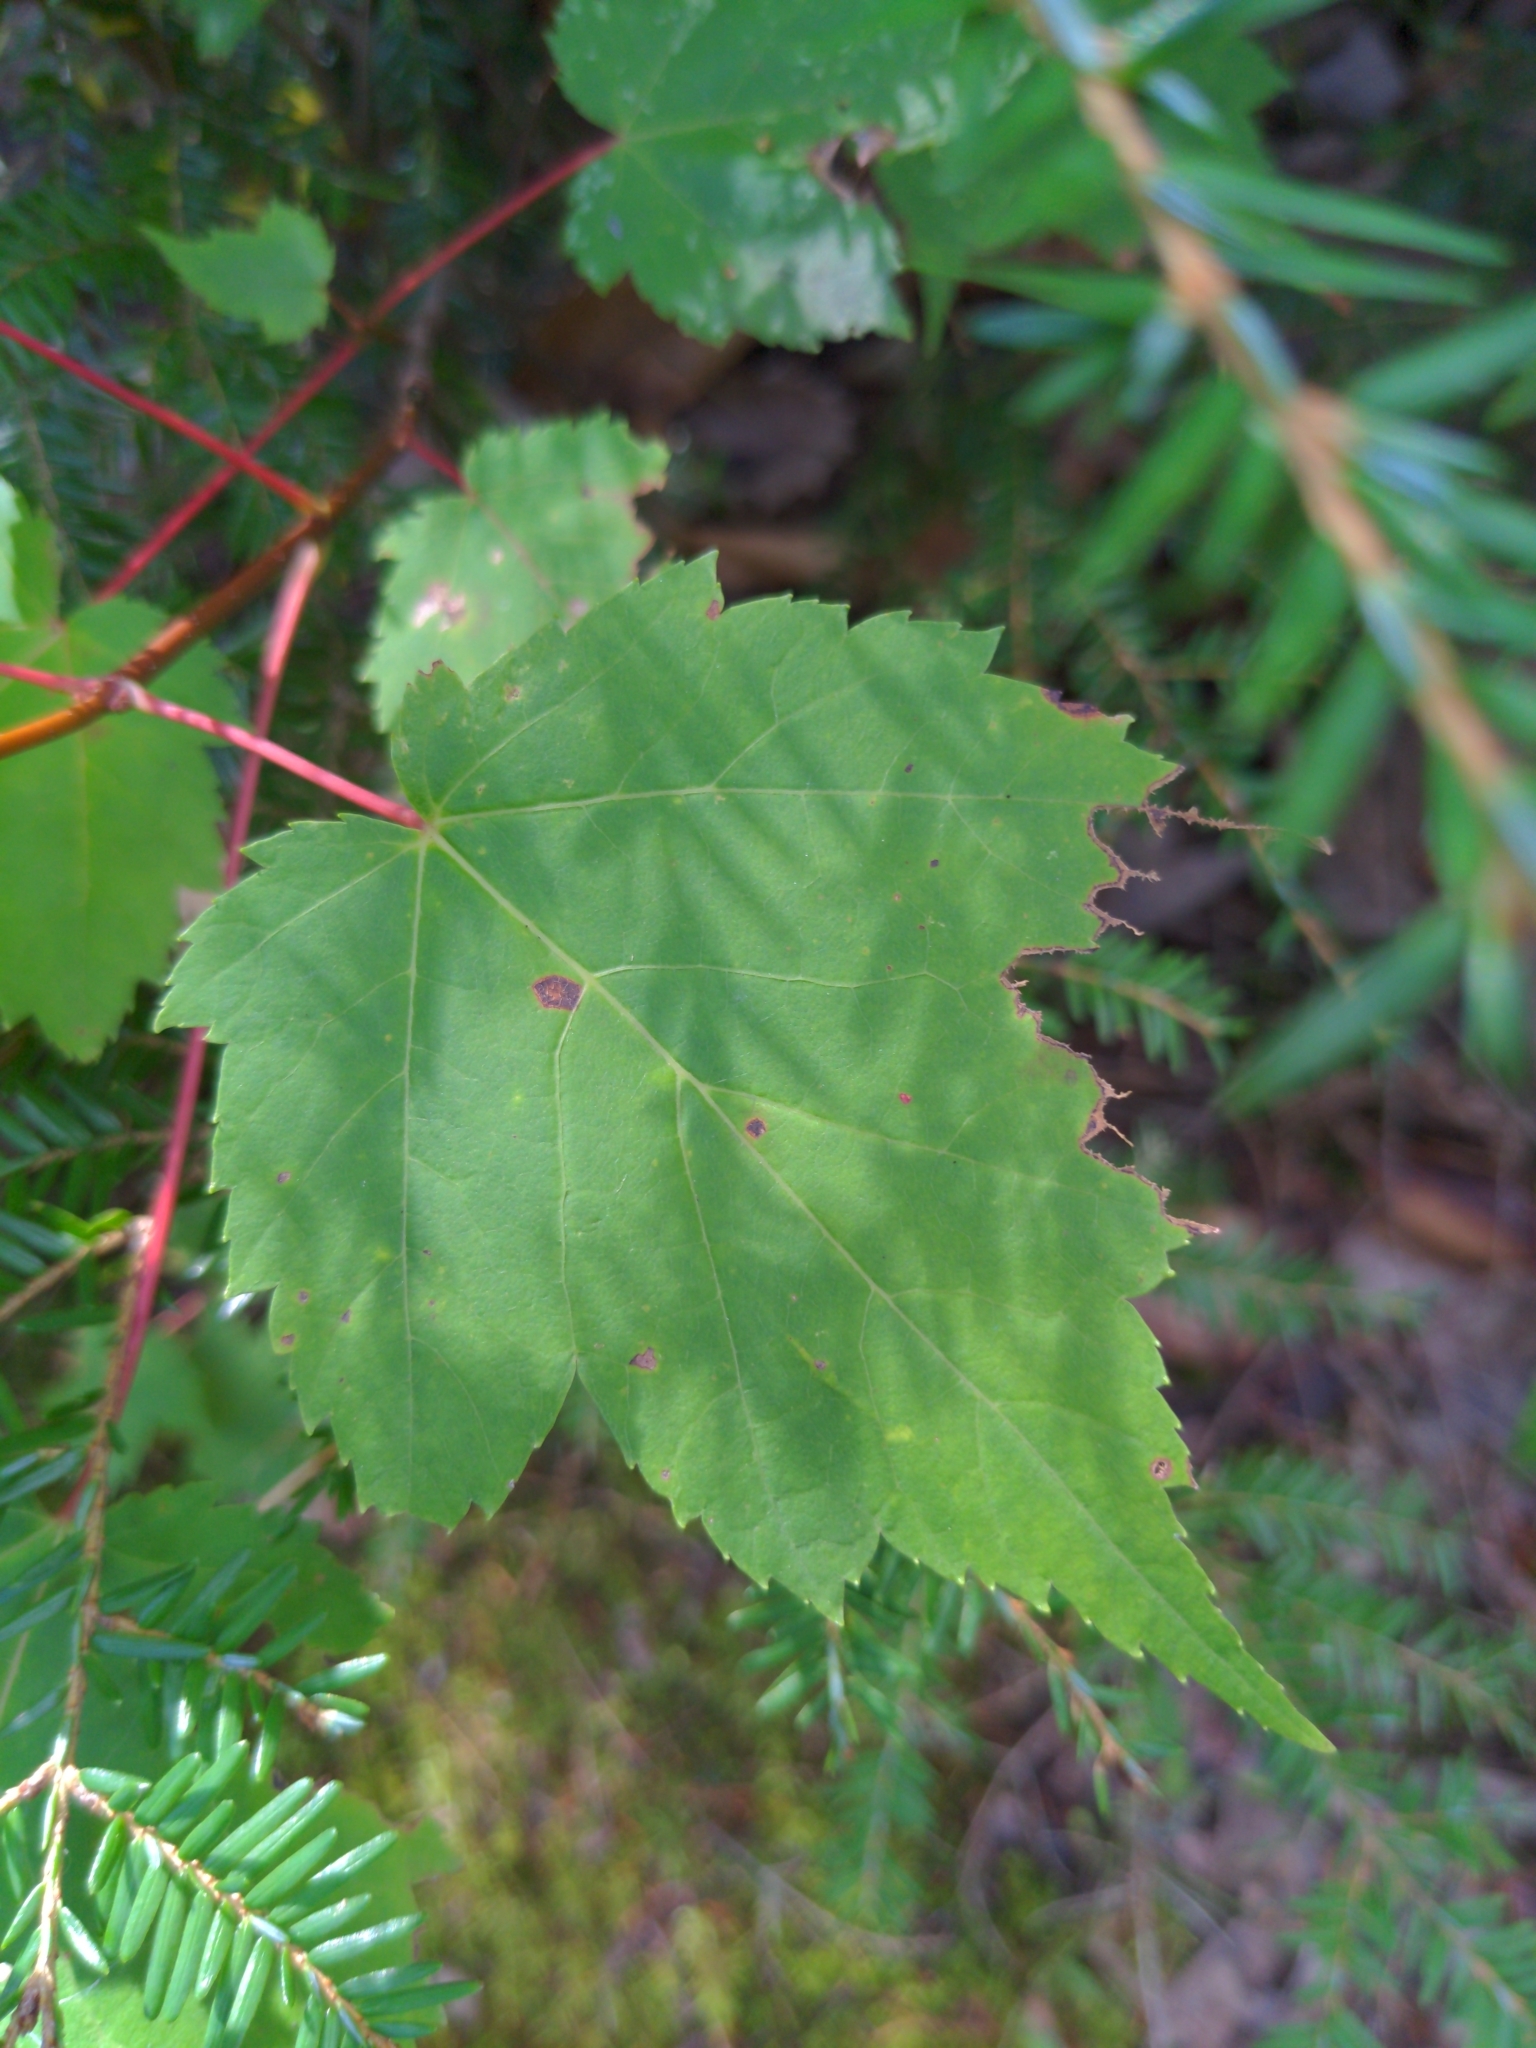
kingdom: Plantae
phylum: Tracheophyta
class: Magnoliopsida
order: Sapindales
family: Sapindaceae
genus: Acer
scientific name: Acer rubrum
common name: Red maple
